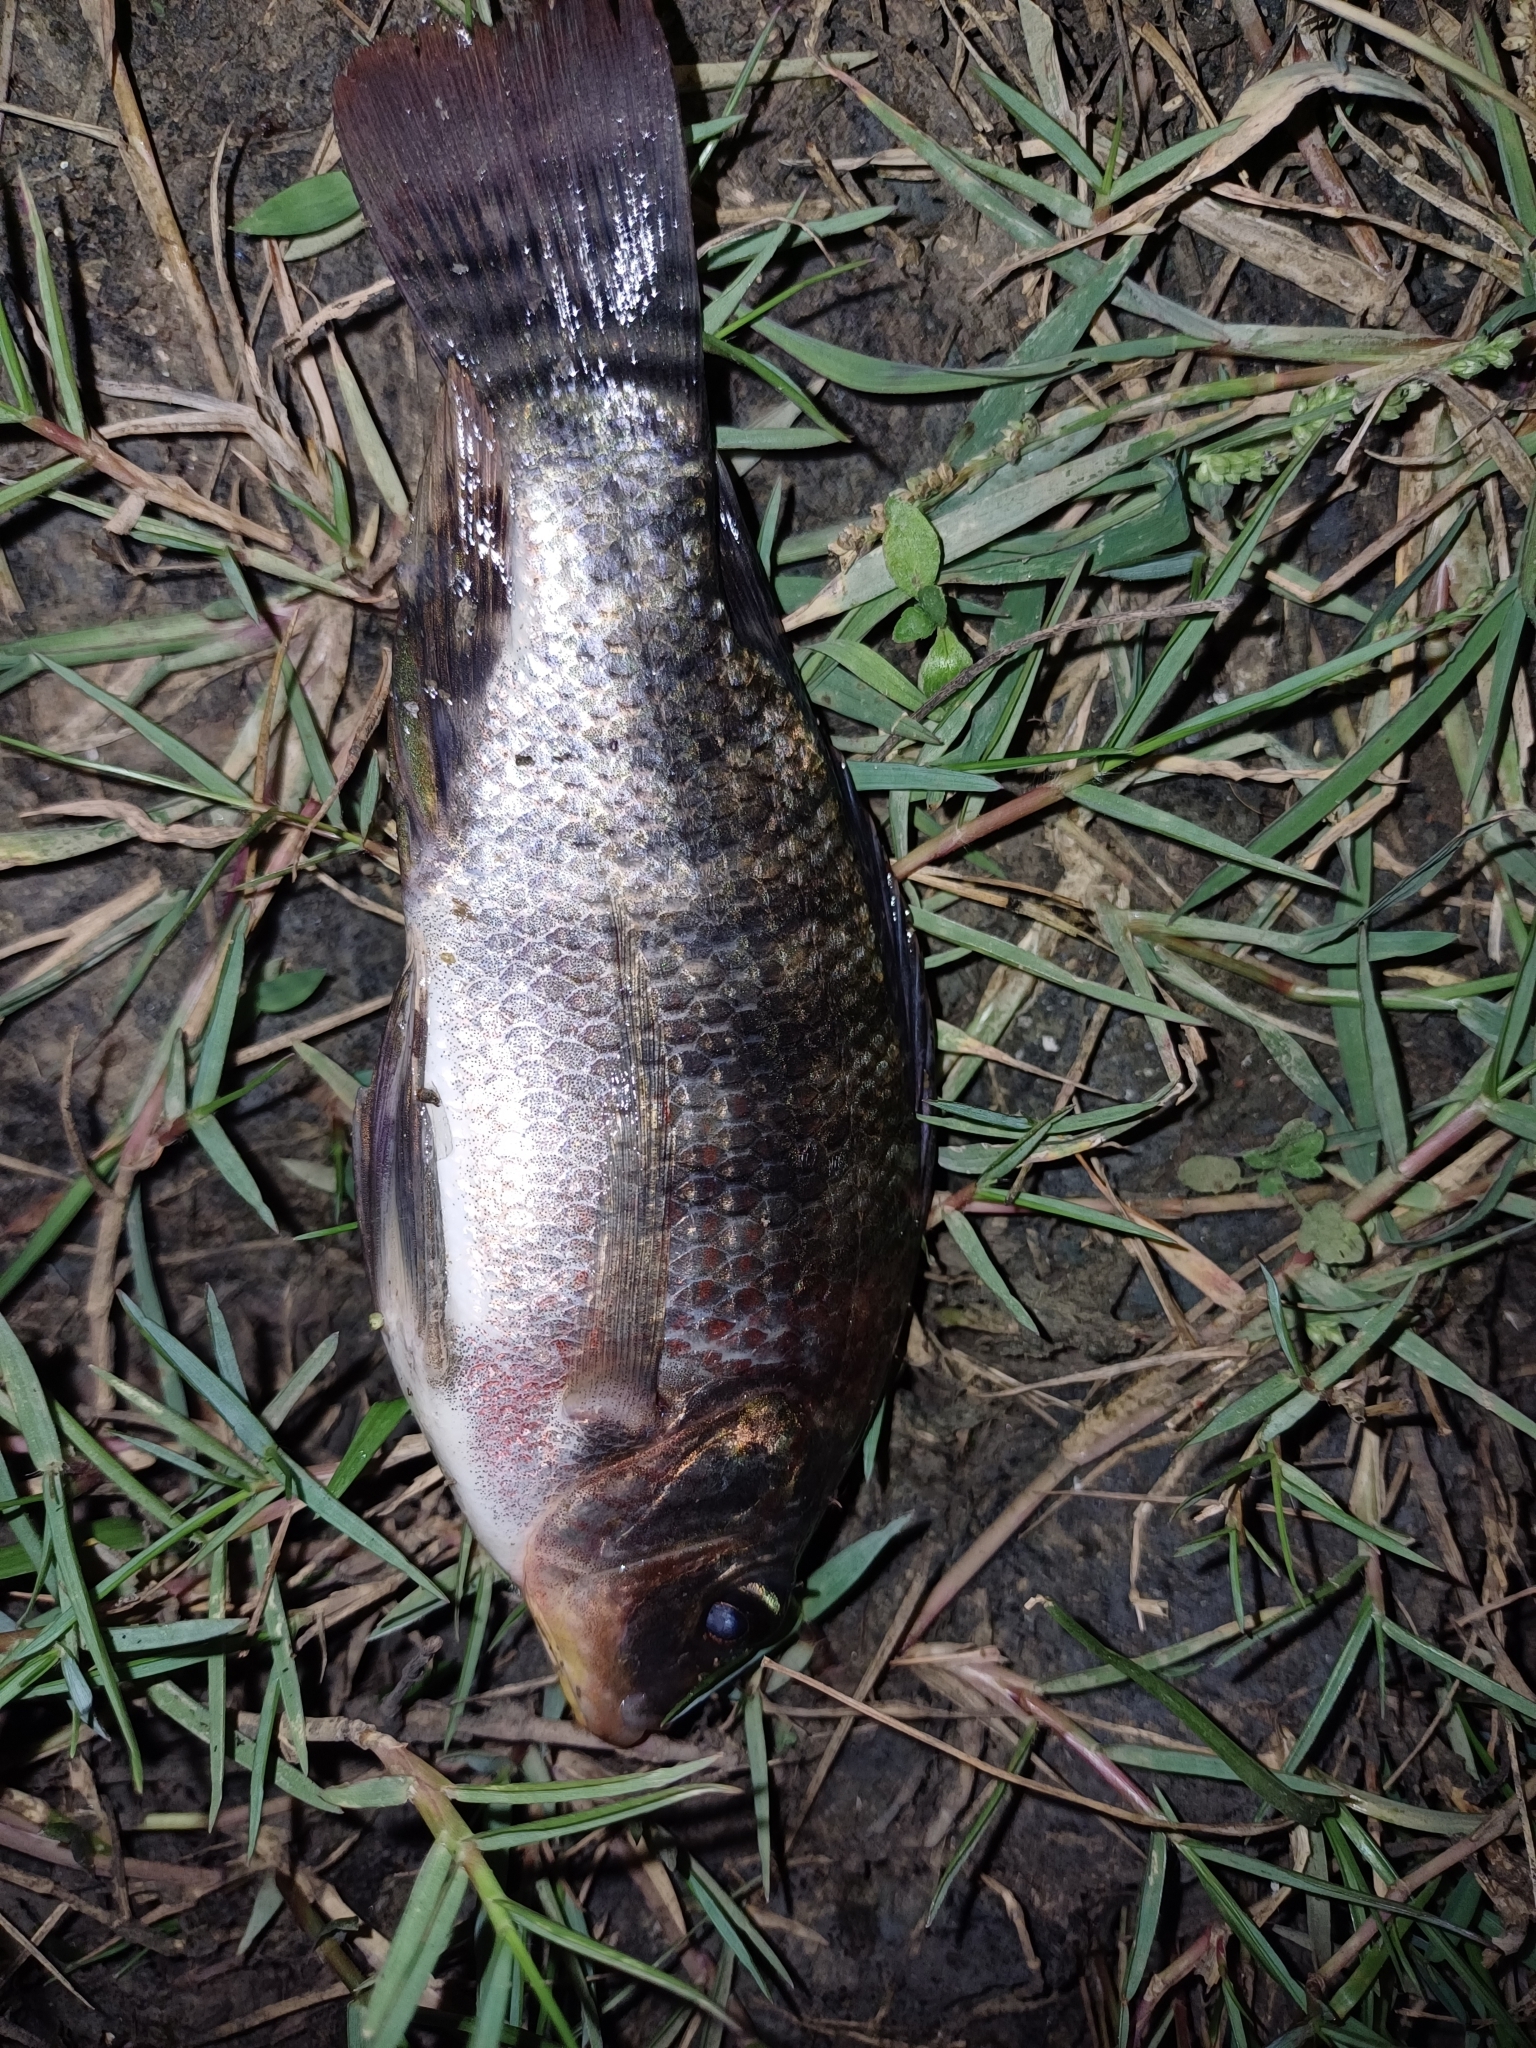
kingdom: Animalia
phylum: Chordata
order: Perciformes
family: Cichlidae
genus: Oreochromis
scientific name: Oreochromis niloticus
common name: Nile tilapia
